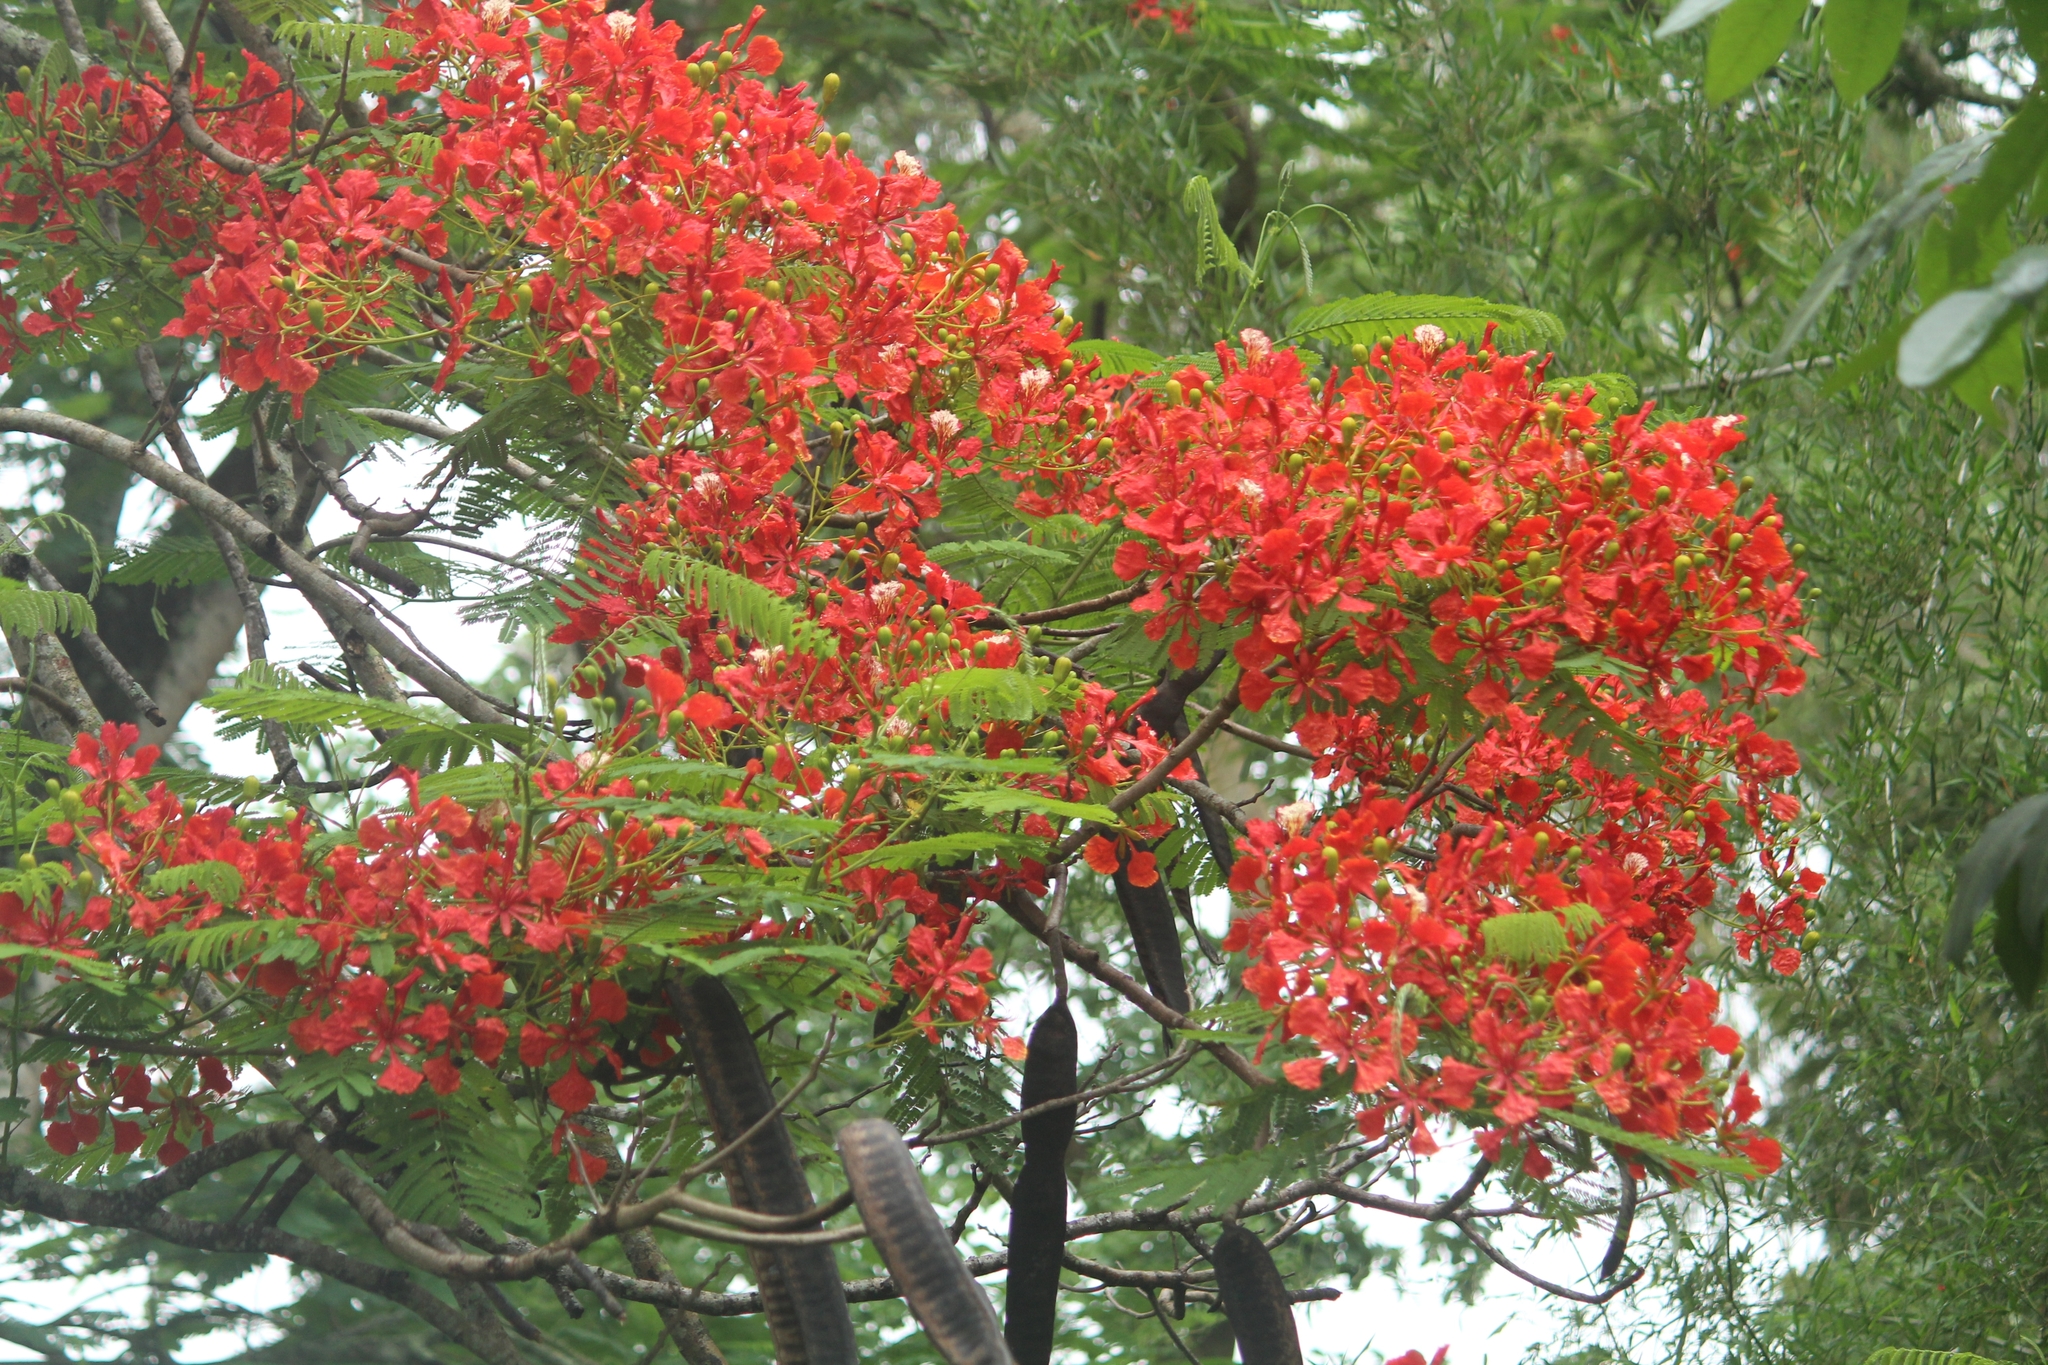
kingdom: Plantae
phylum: Tracheophyta
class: Magnoliopsida
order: Fabales
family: Fabaceae
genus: Delonix
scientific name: Delonix regia
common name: Royal poinciana
